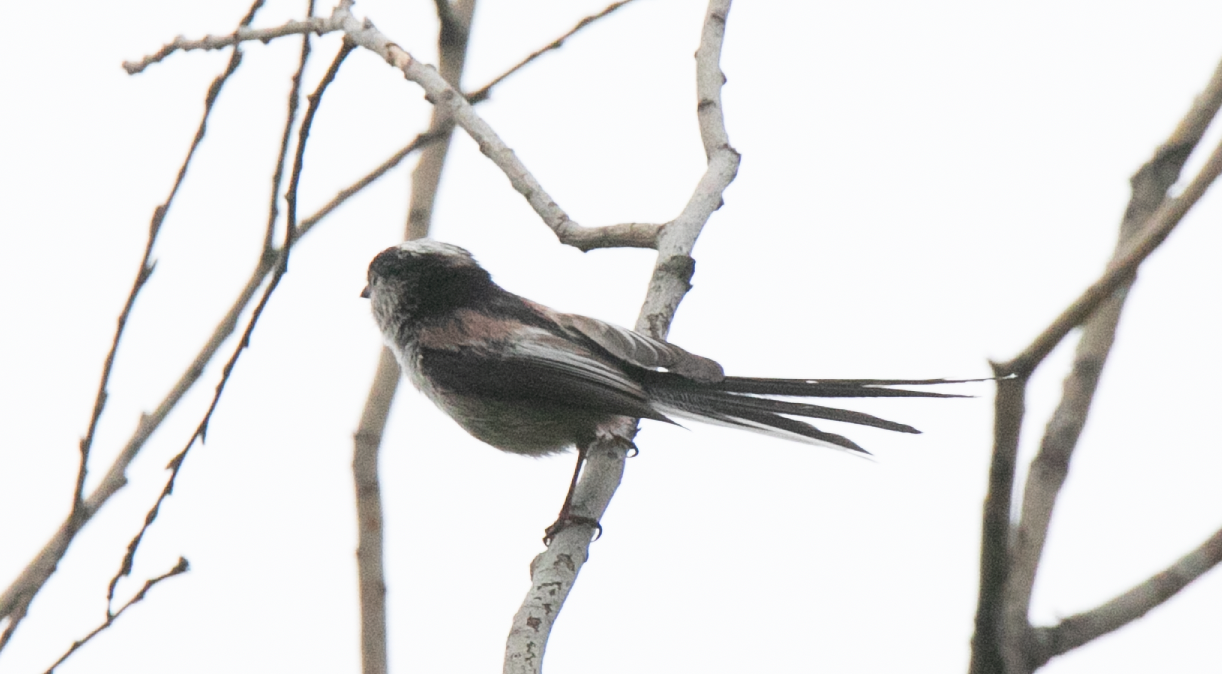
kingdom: Animalia
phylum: Chordata
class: Aves
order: Passeriformes
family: Aegithalidae
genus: Aegithalos
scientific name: Aegithalos caudatus
